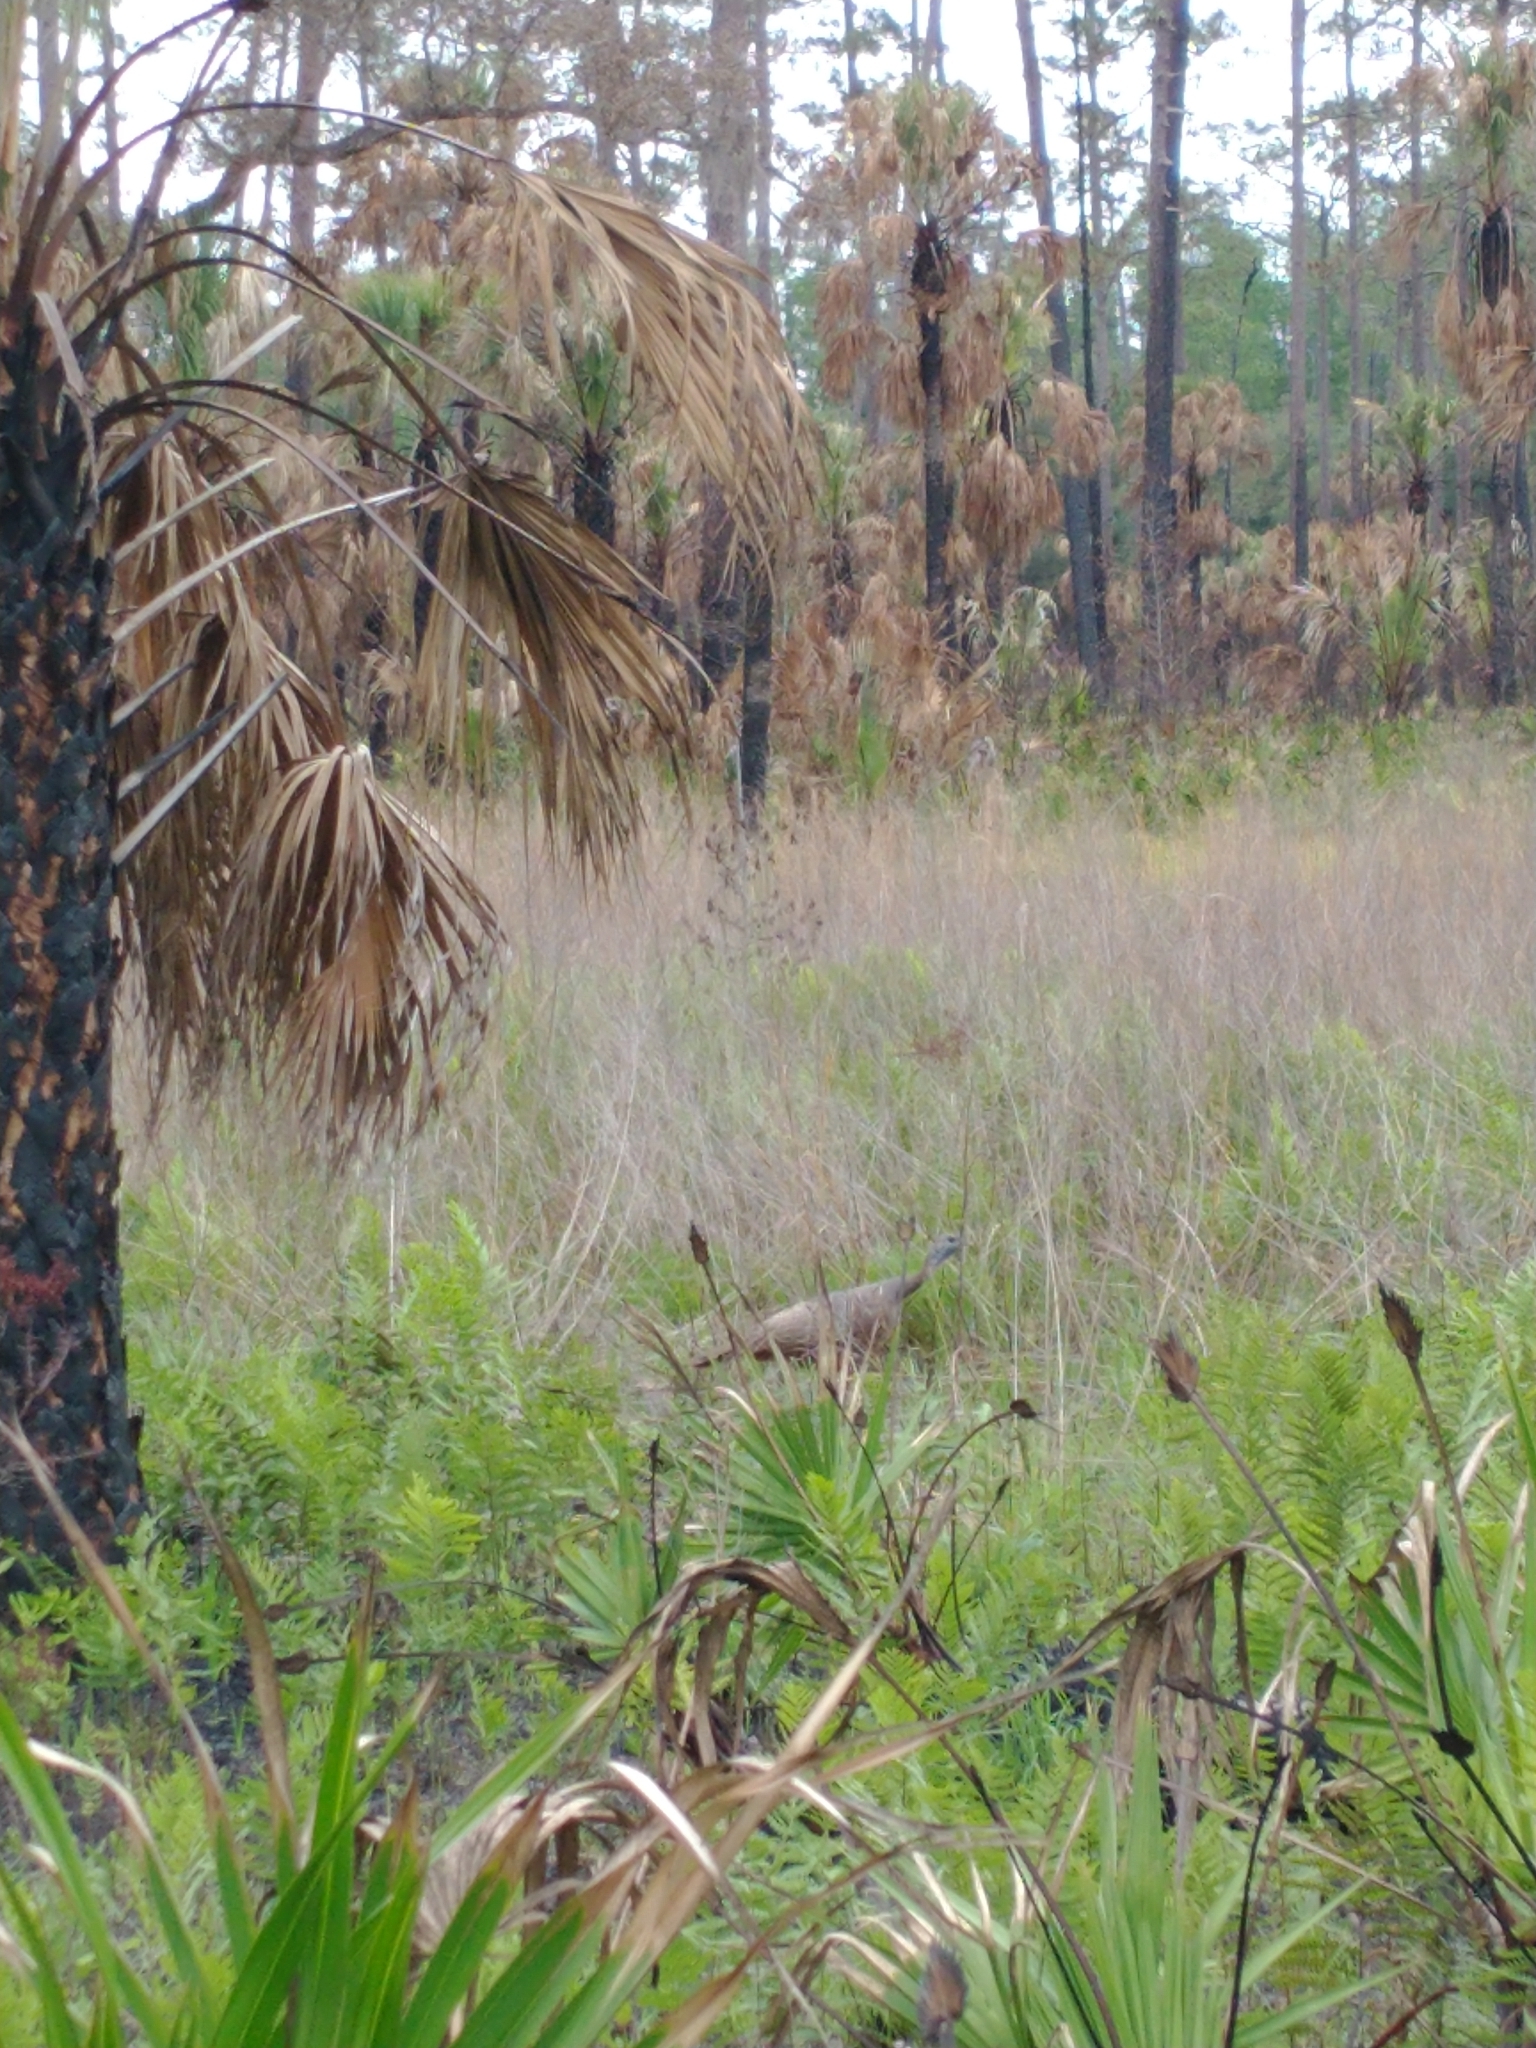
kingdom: Animalia
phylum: Chordata
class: Aves
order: Galliformes
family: Phasianidae
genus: Meleagris
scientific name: Meleagris gallopavo
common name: Wild turkey
